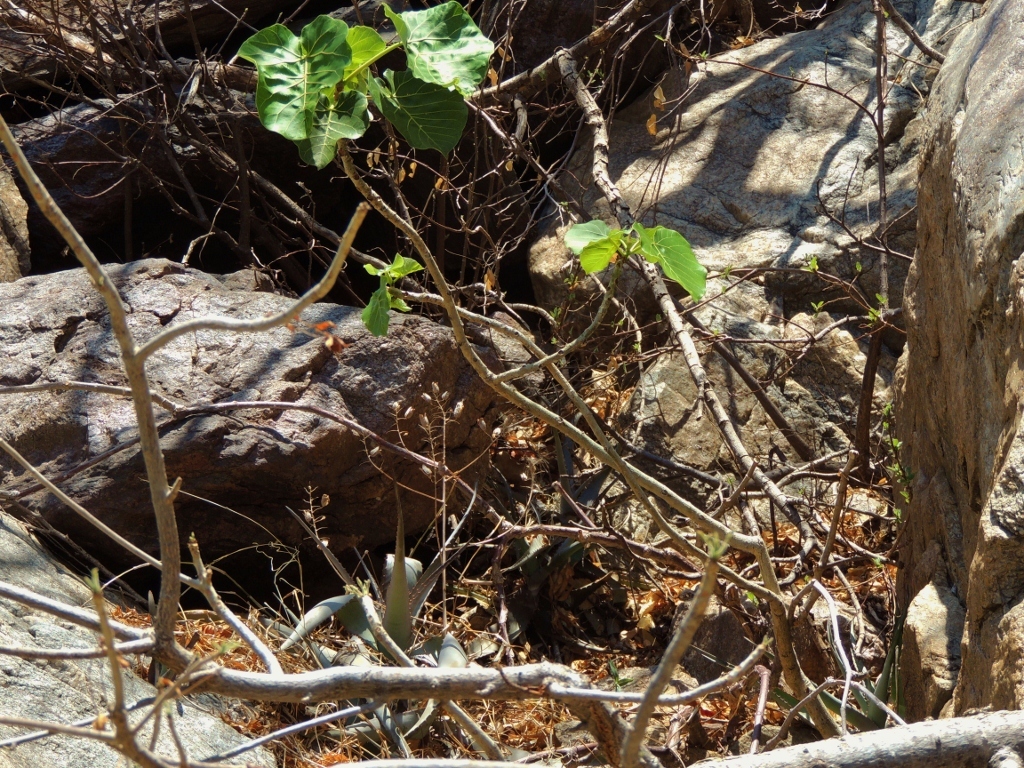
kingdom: Plantae
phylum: Tracheophyta
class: Magnoliopsida
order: Rosales
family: Moraceae
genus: Ficus
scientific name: Ficus abutilifolia
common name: Large-leaved rock fig
